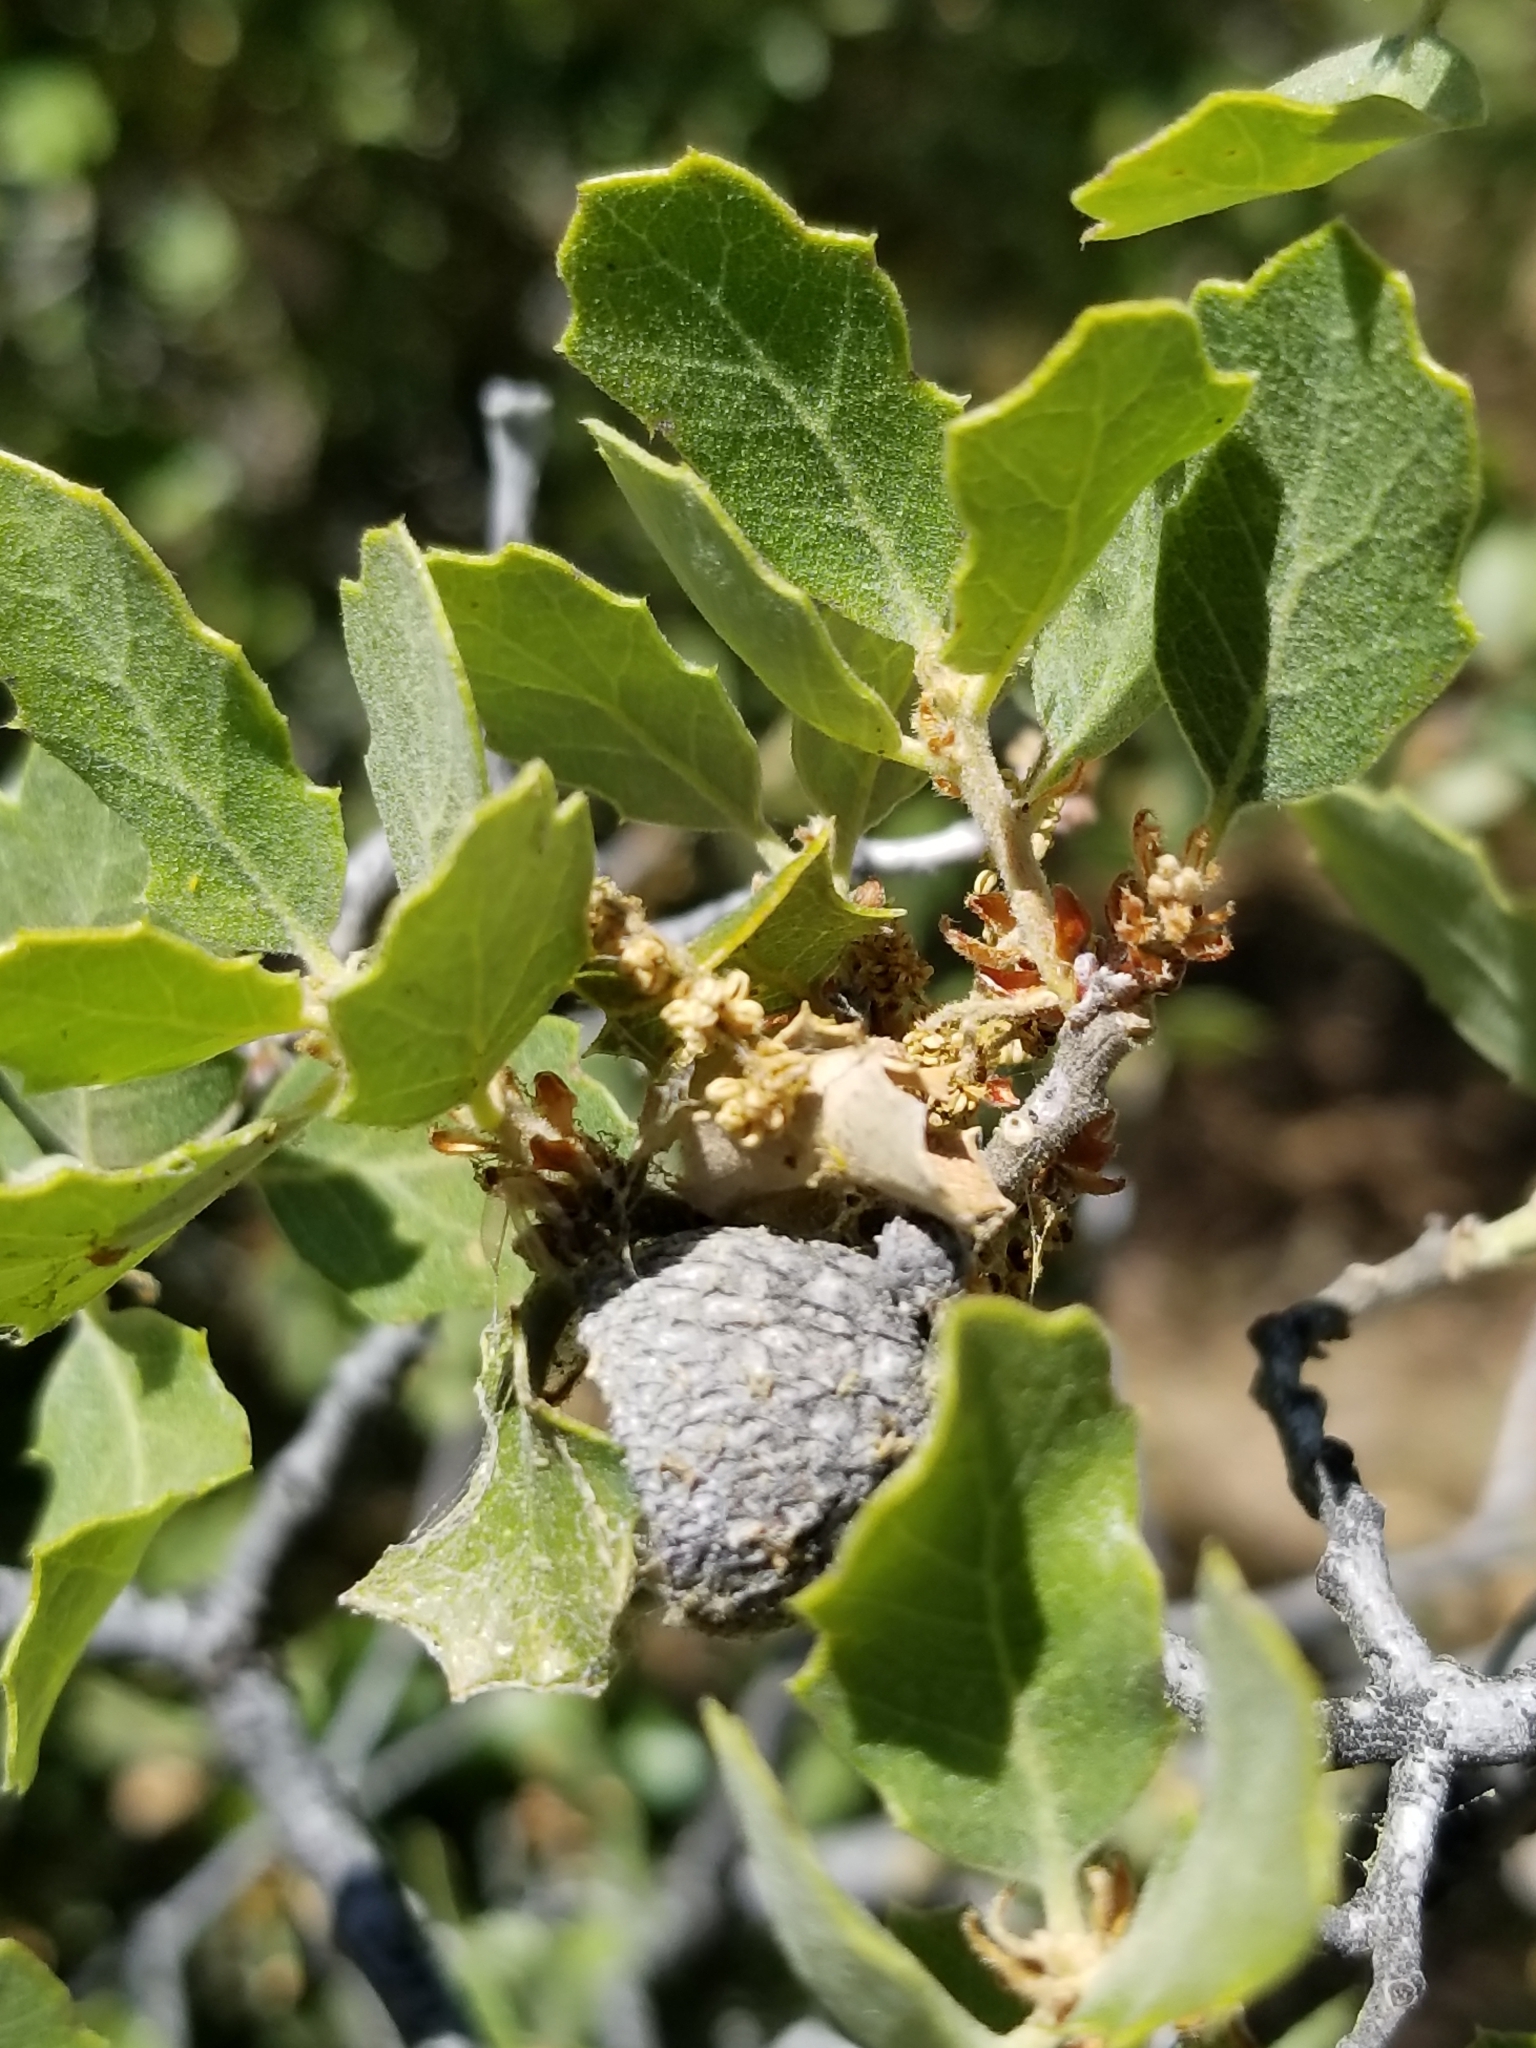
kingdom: Plantae
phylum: Tracheophyta
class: Magnoliopsida
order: Fagales
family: Fagaceae
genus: Quercus
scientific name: Quercus cornelius-mulleri
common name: Muller oak
